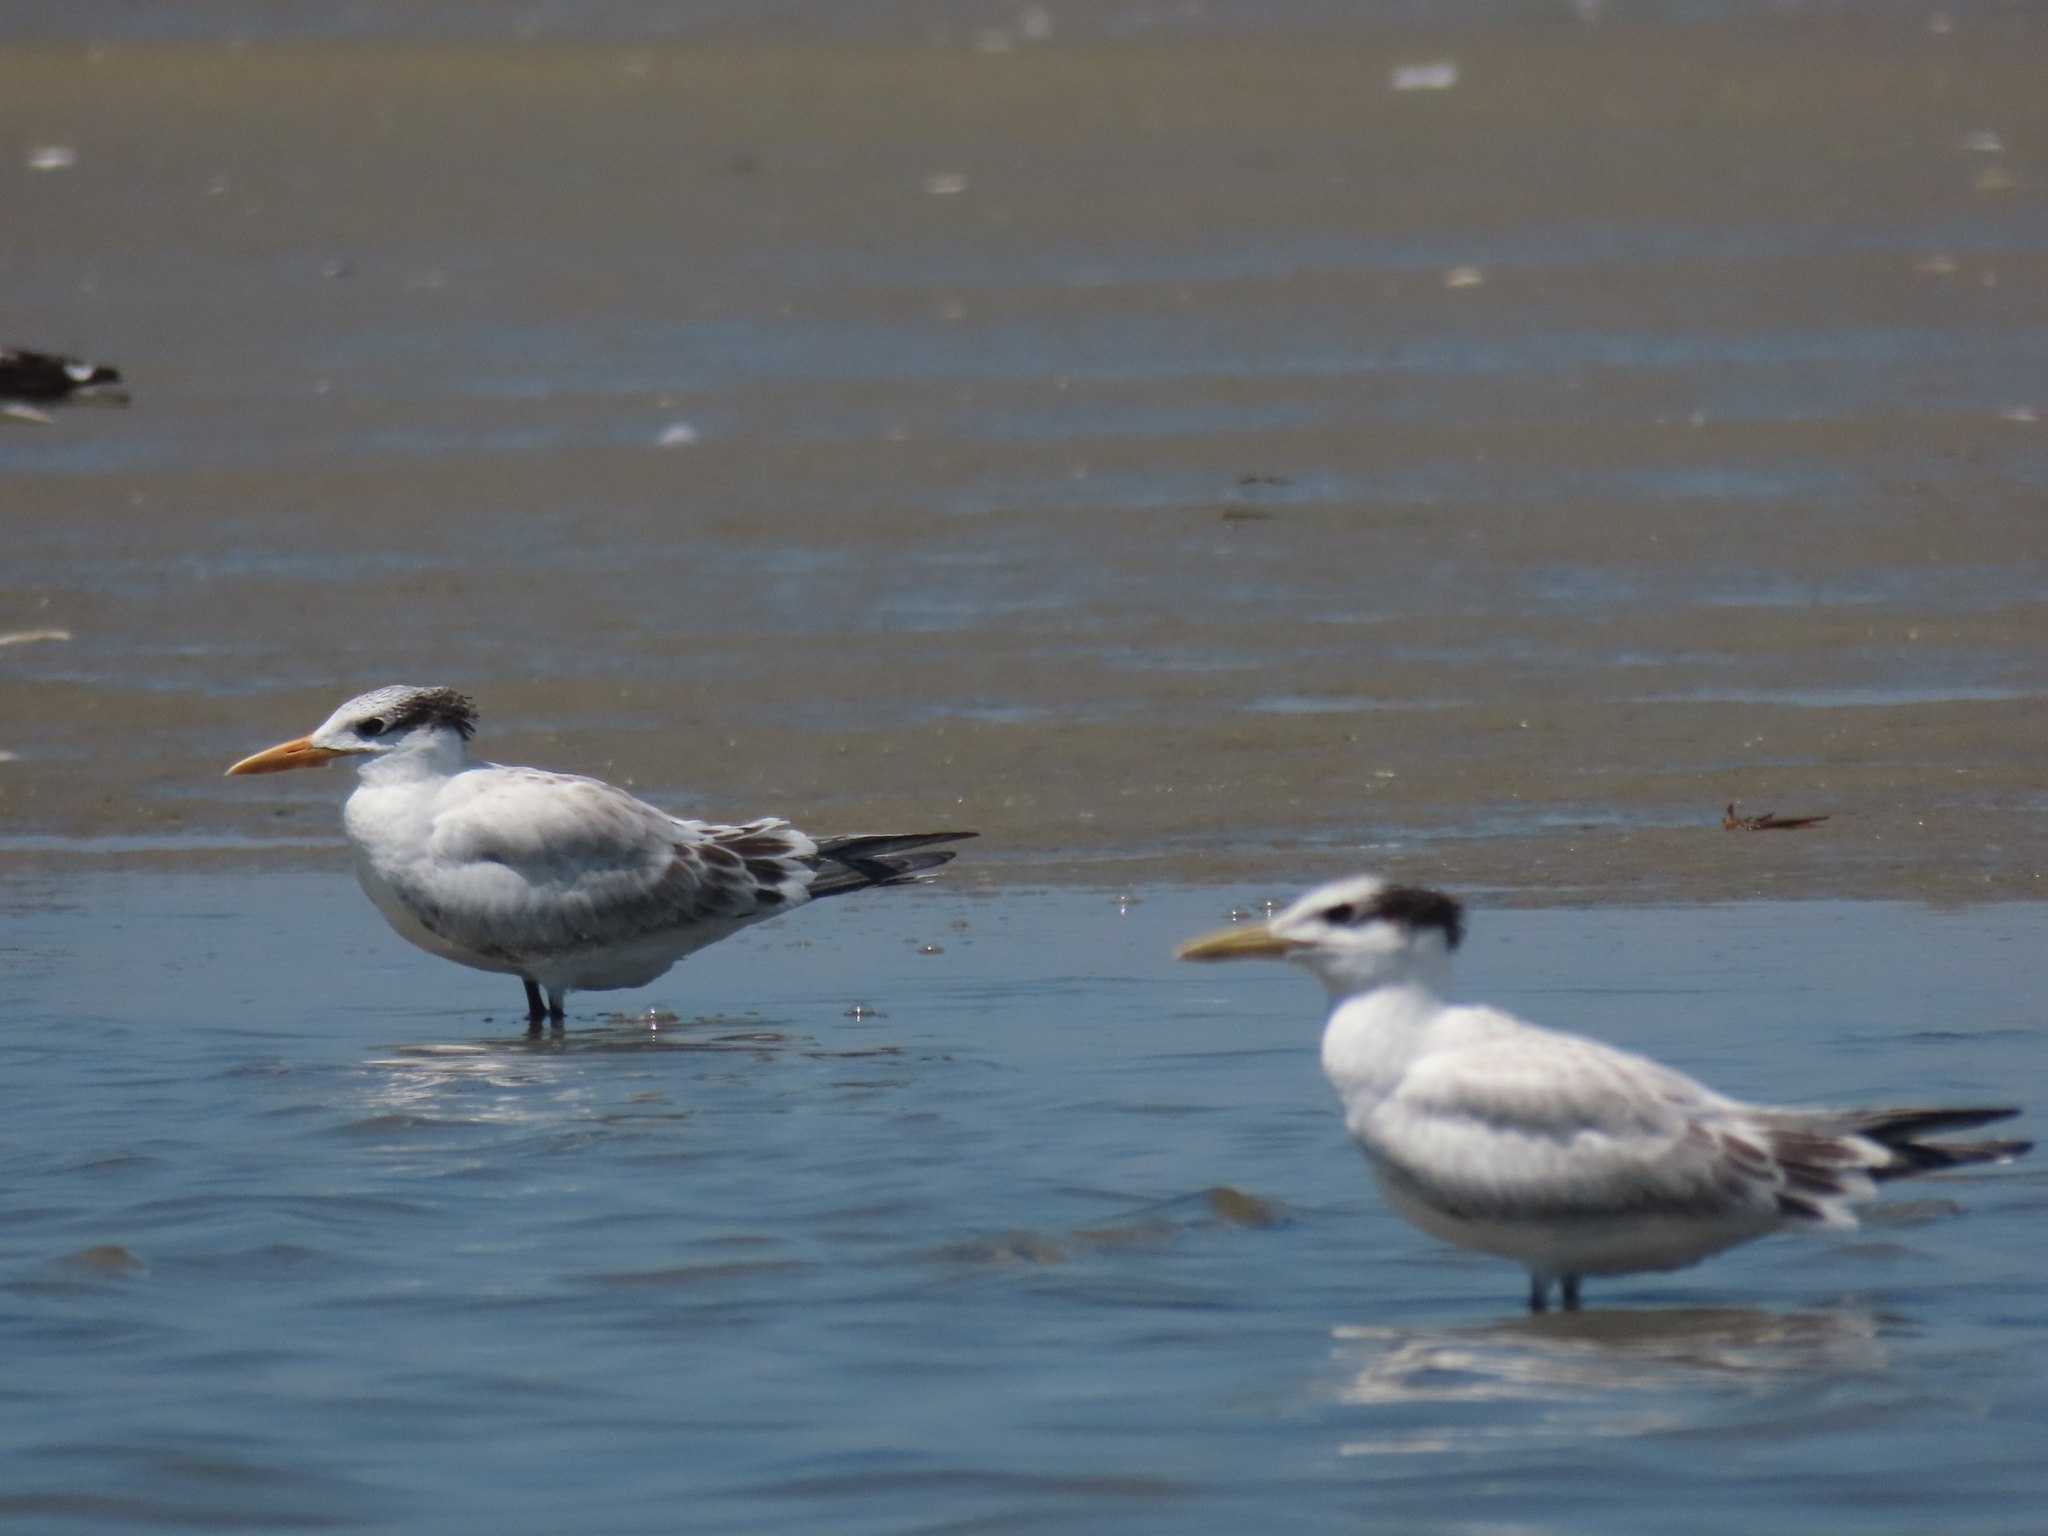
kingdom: Animalia
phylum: Chordata
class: Aves
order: Charadriiformes
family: Laridae
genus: Thalasseus
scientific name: Thalasseus maximus
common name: Royal tern
